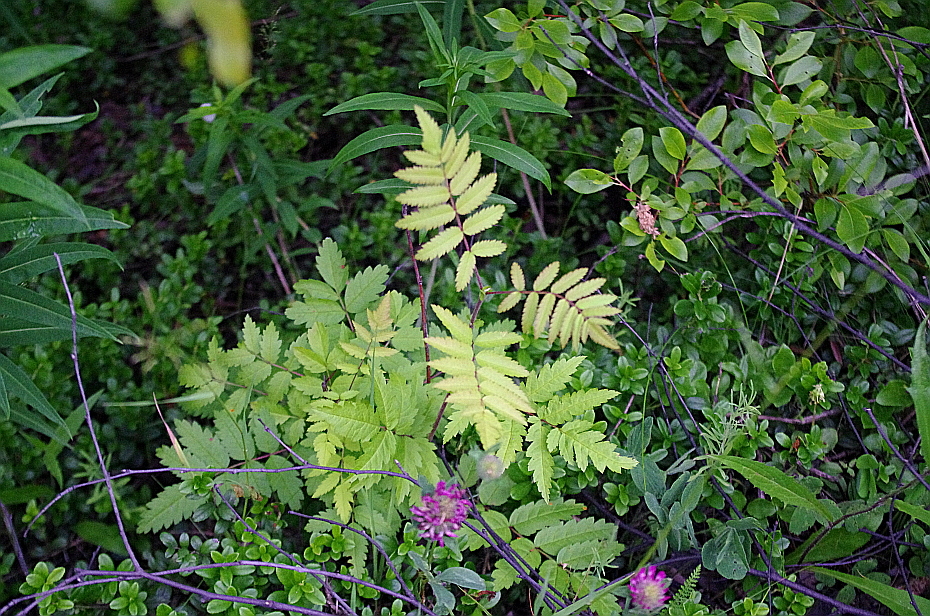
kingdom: Plantae
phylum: Tracheophyta
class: Magnoliopsida
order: Rosales
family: Rosaceae
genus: Sorbus
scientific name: Sorbus aucuparia
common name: Rowan
